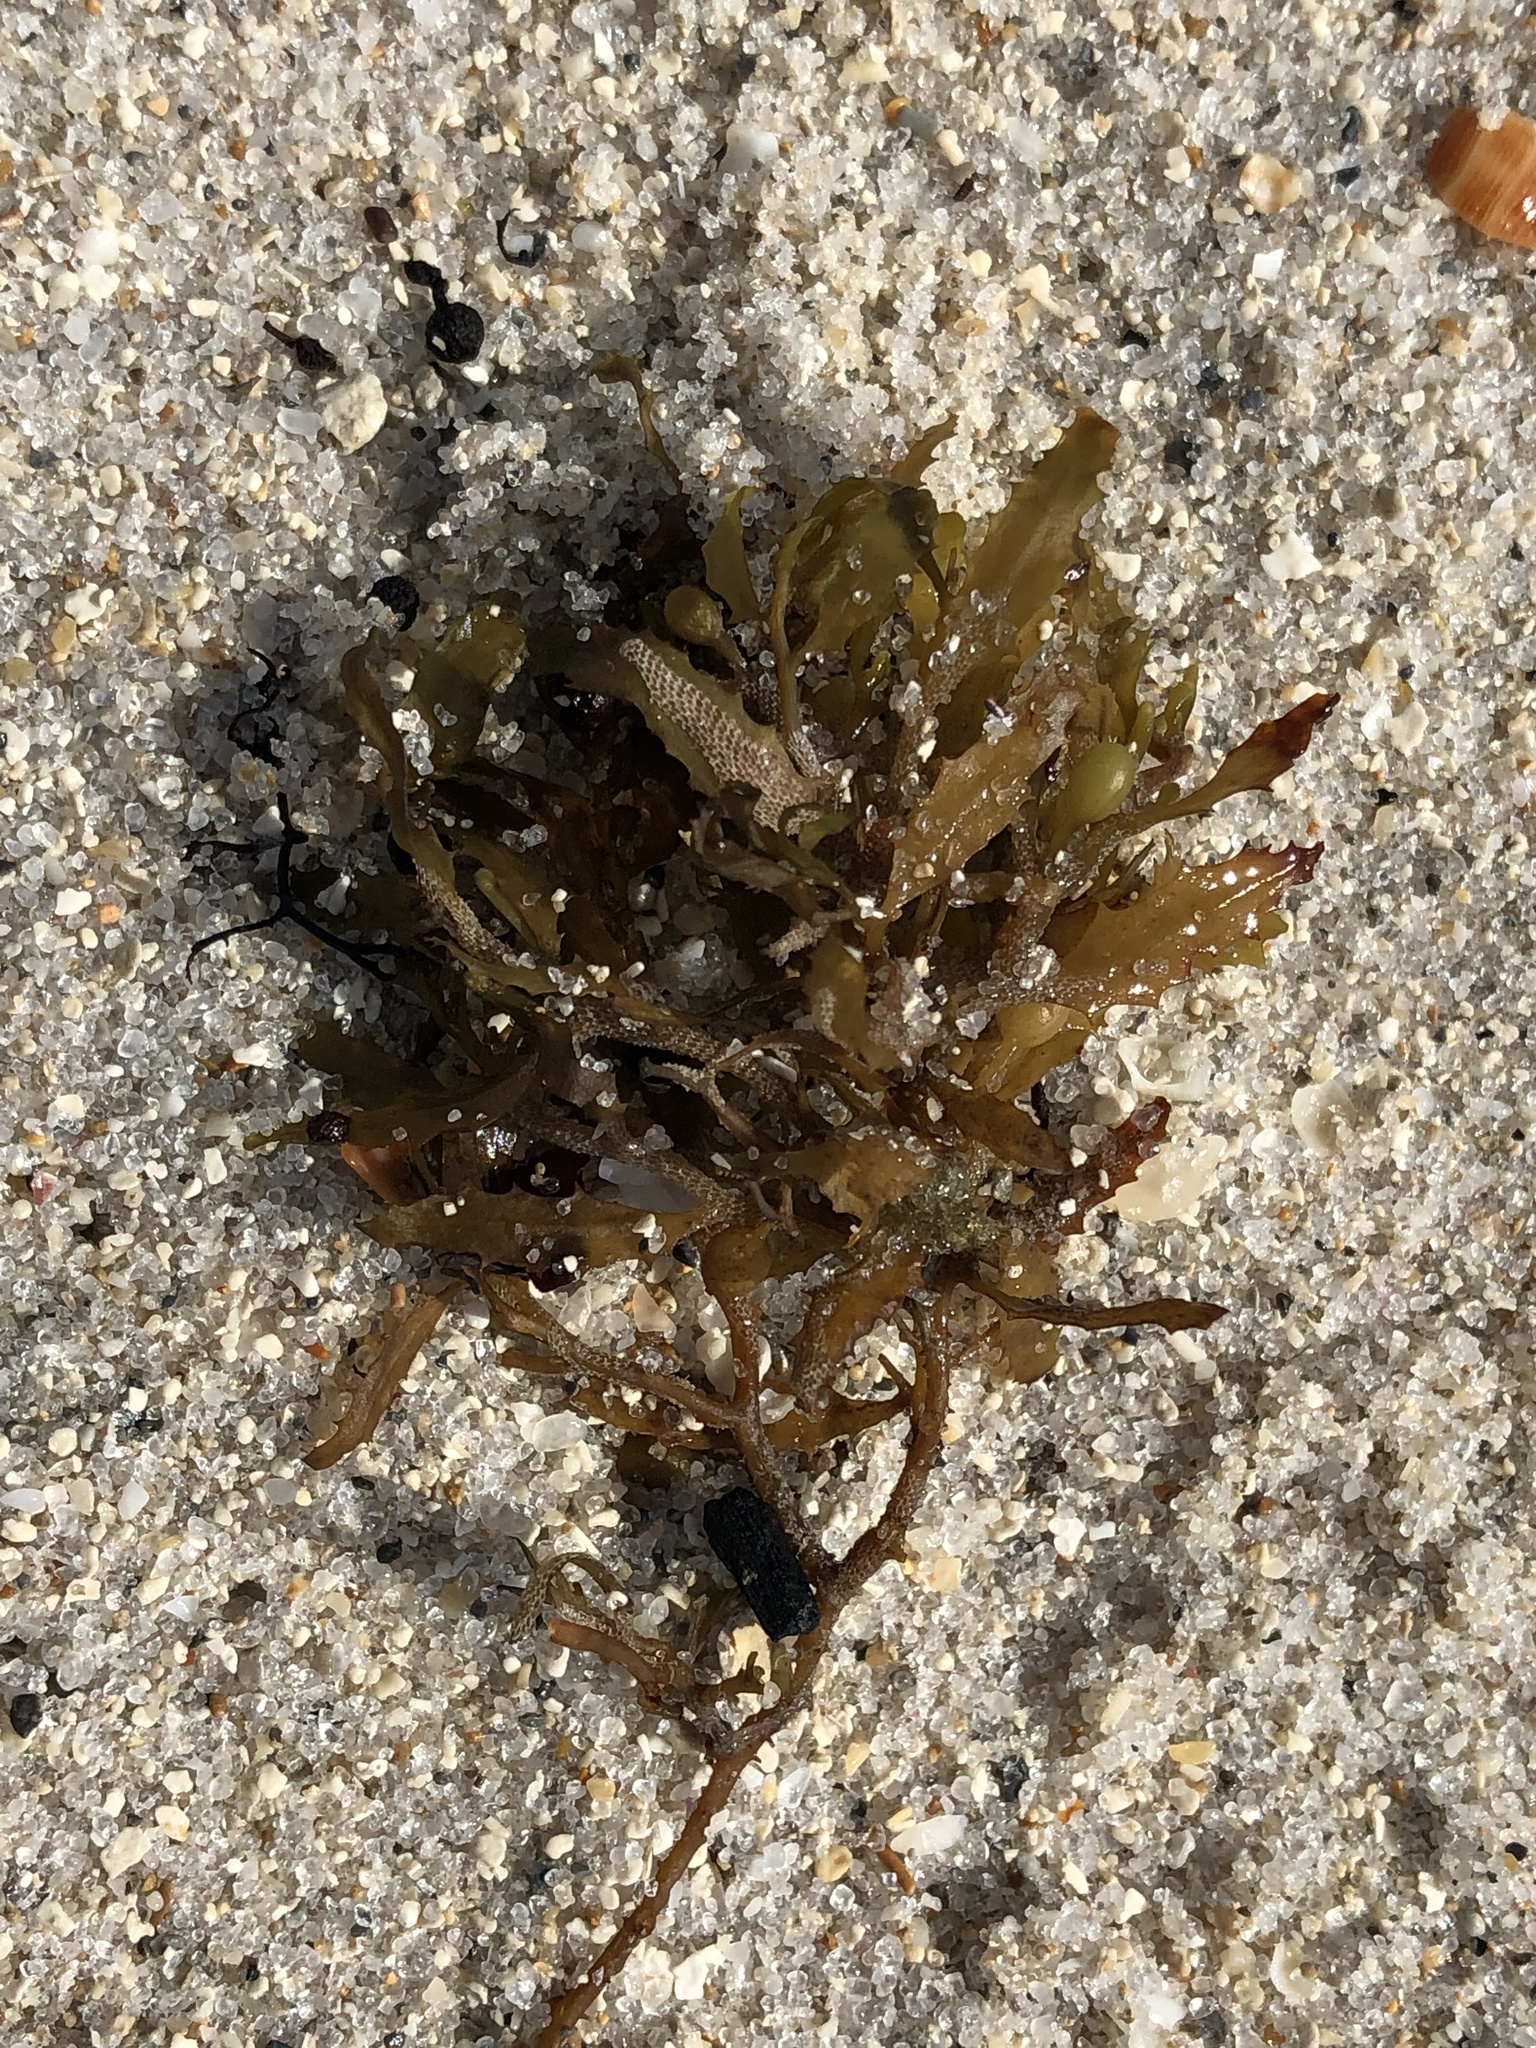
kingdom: Chromista
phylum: Ochrophyta
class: Phaeophyceae
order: Fucales
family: Sargassaceae
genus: Sargassum
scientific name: Sargassum fluitans
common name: Sargassum seaweed
